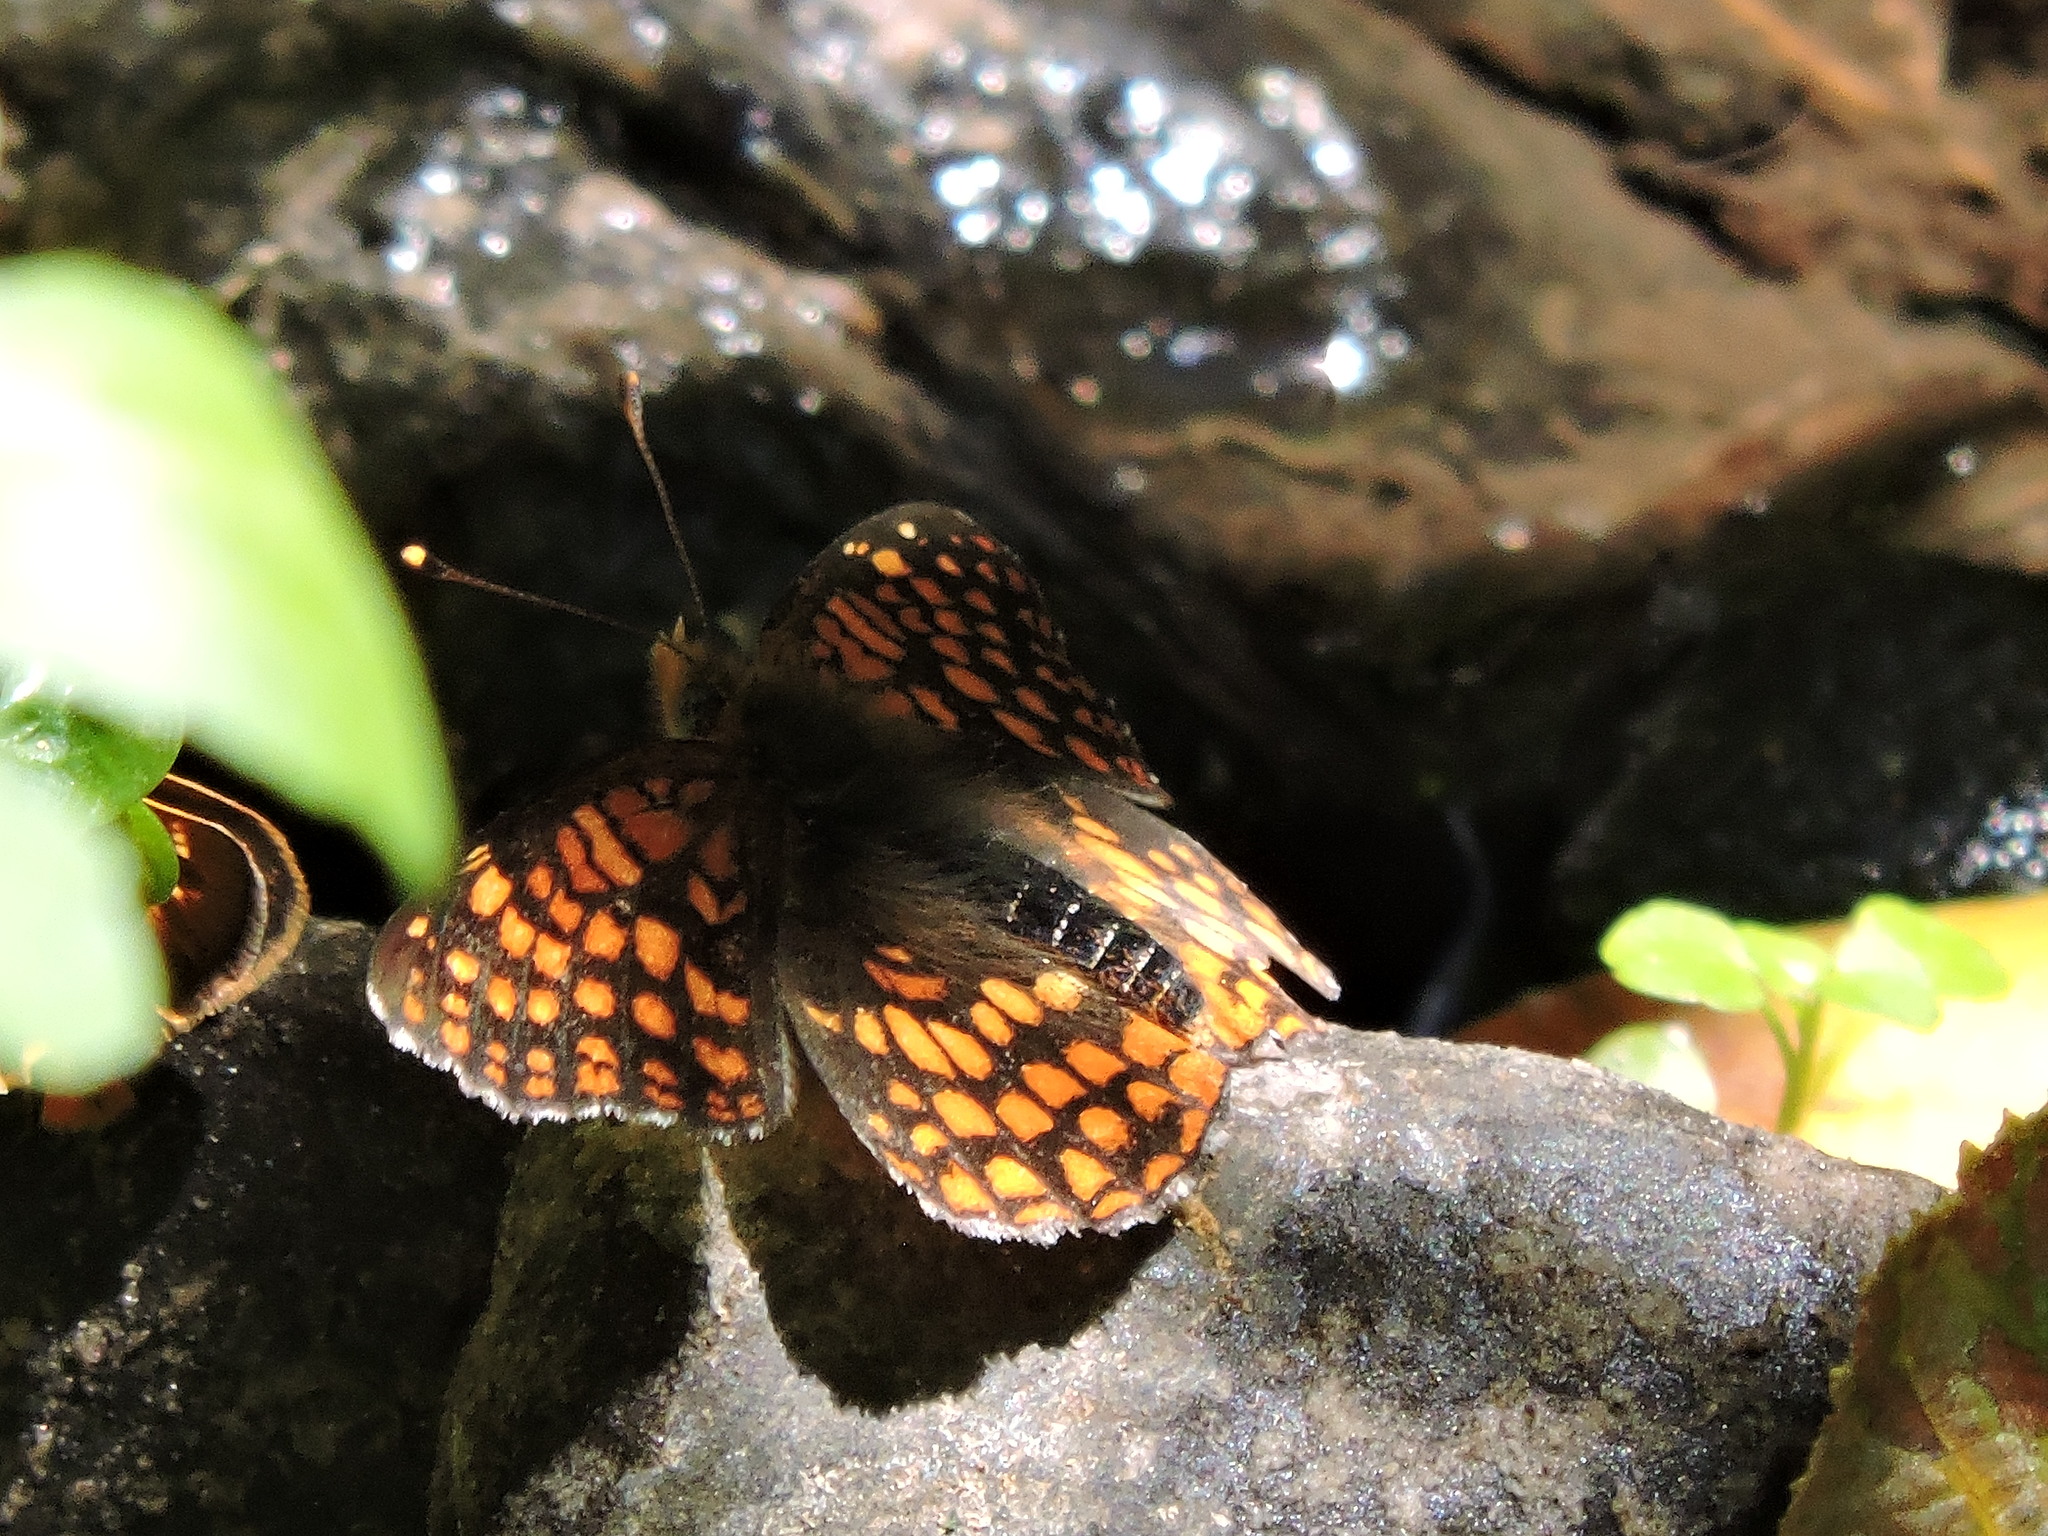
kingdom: Animalia
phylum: Arthropoda
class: Insecta
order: Lepidoptera
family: Nymphalidae
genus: Chlosyne
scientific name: Chlosyne palla
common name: Northern checkerspot
